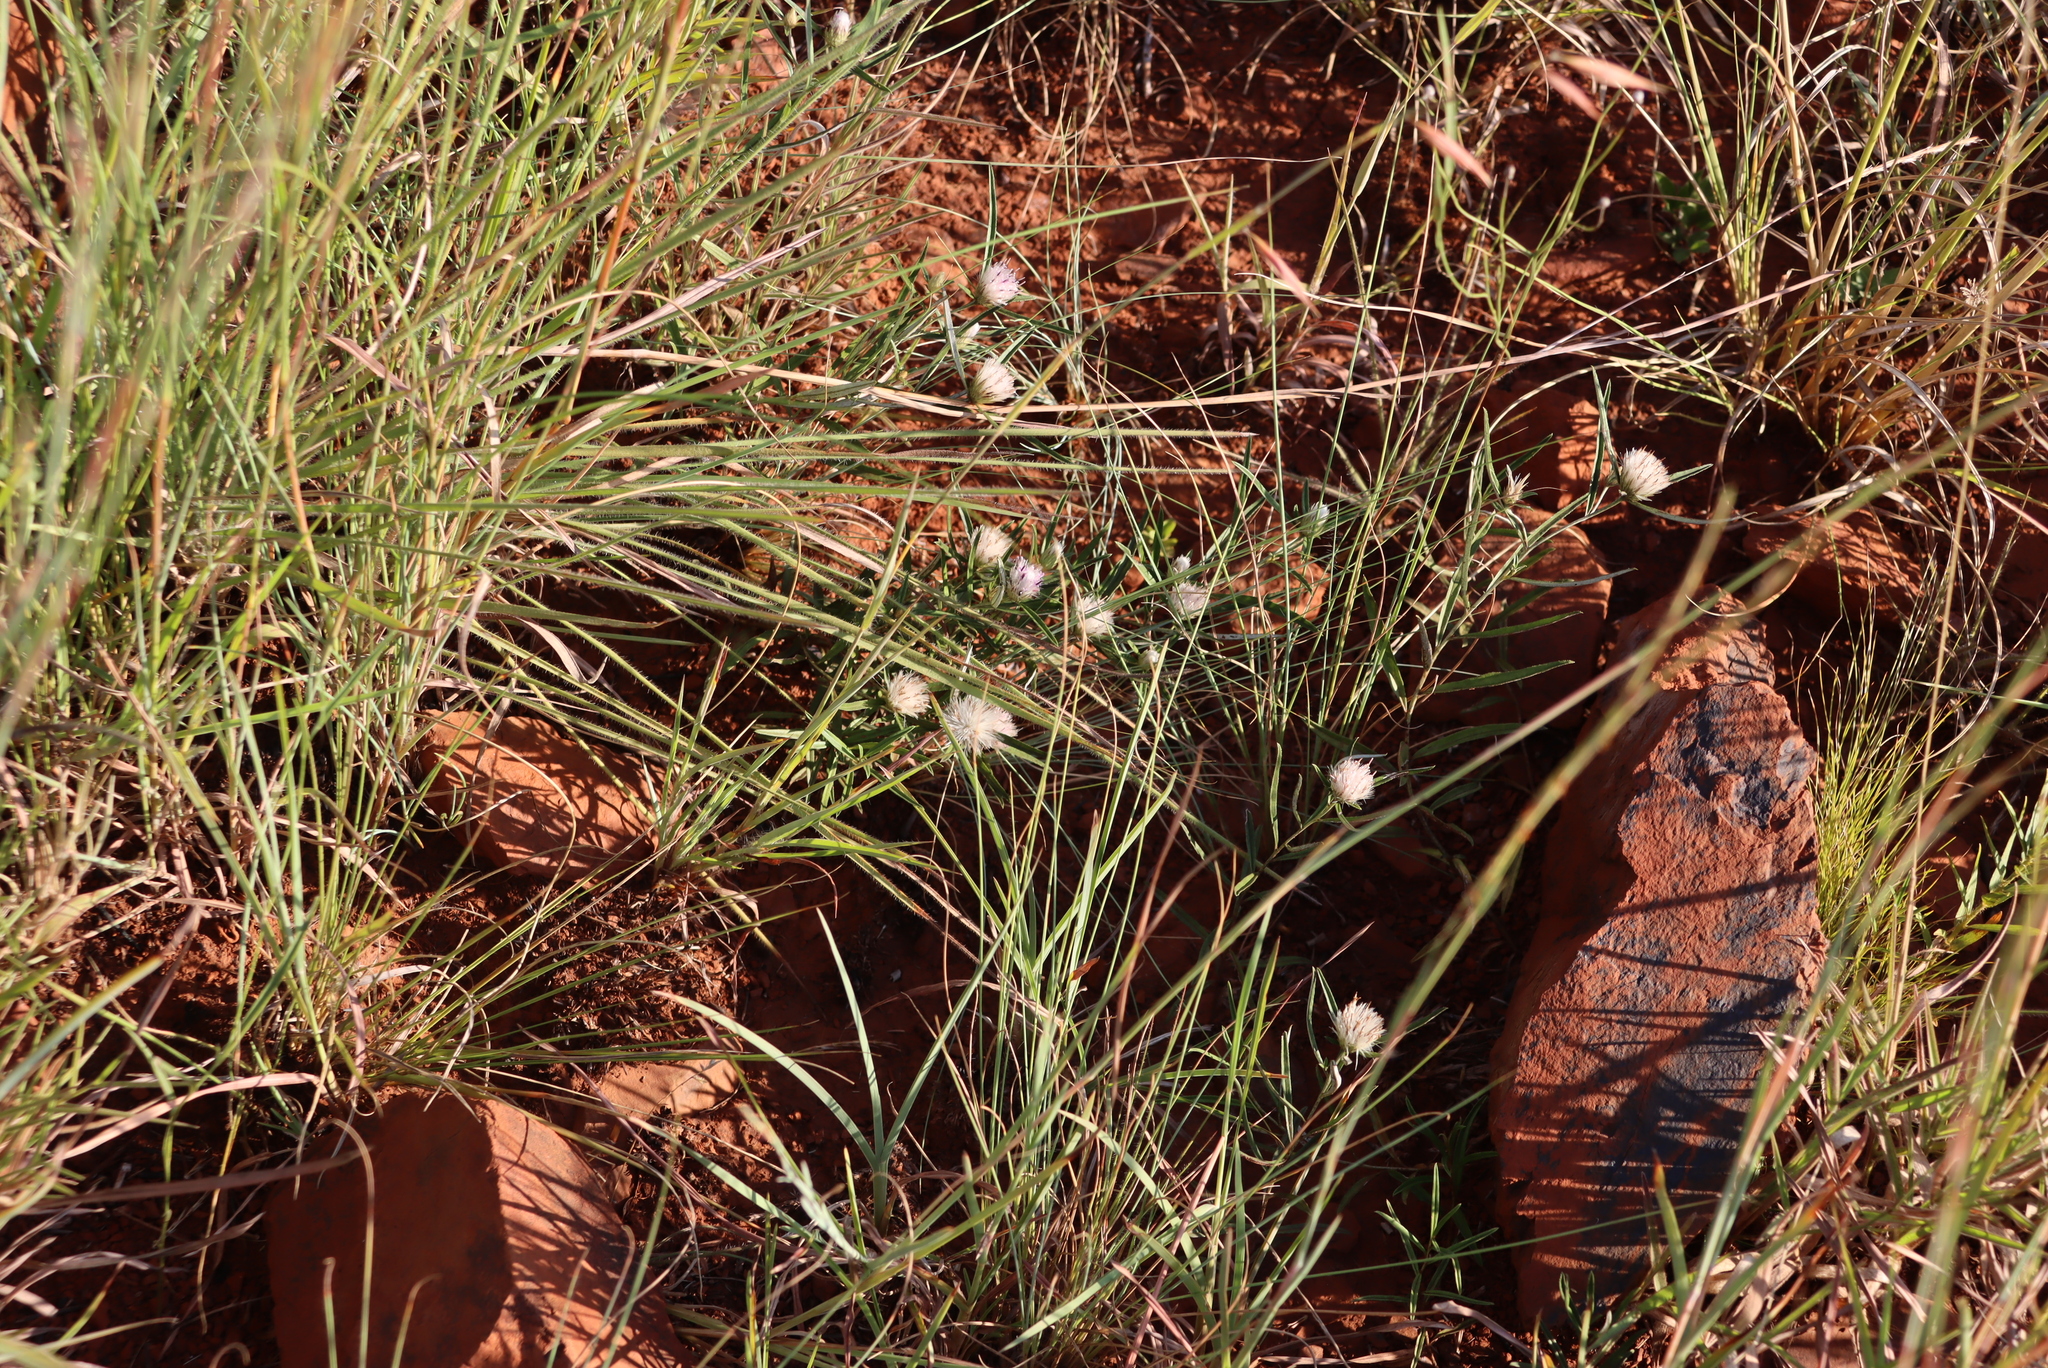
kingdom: Plantae
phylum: Tracheophyta
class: Magnoliopsida
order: Asterales
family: Asteraceae
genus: Dicoma
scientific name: Dicoma anomala
